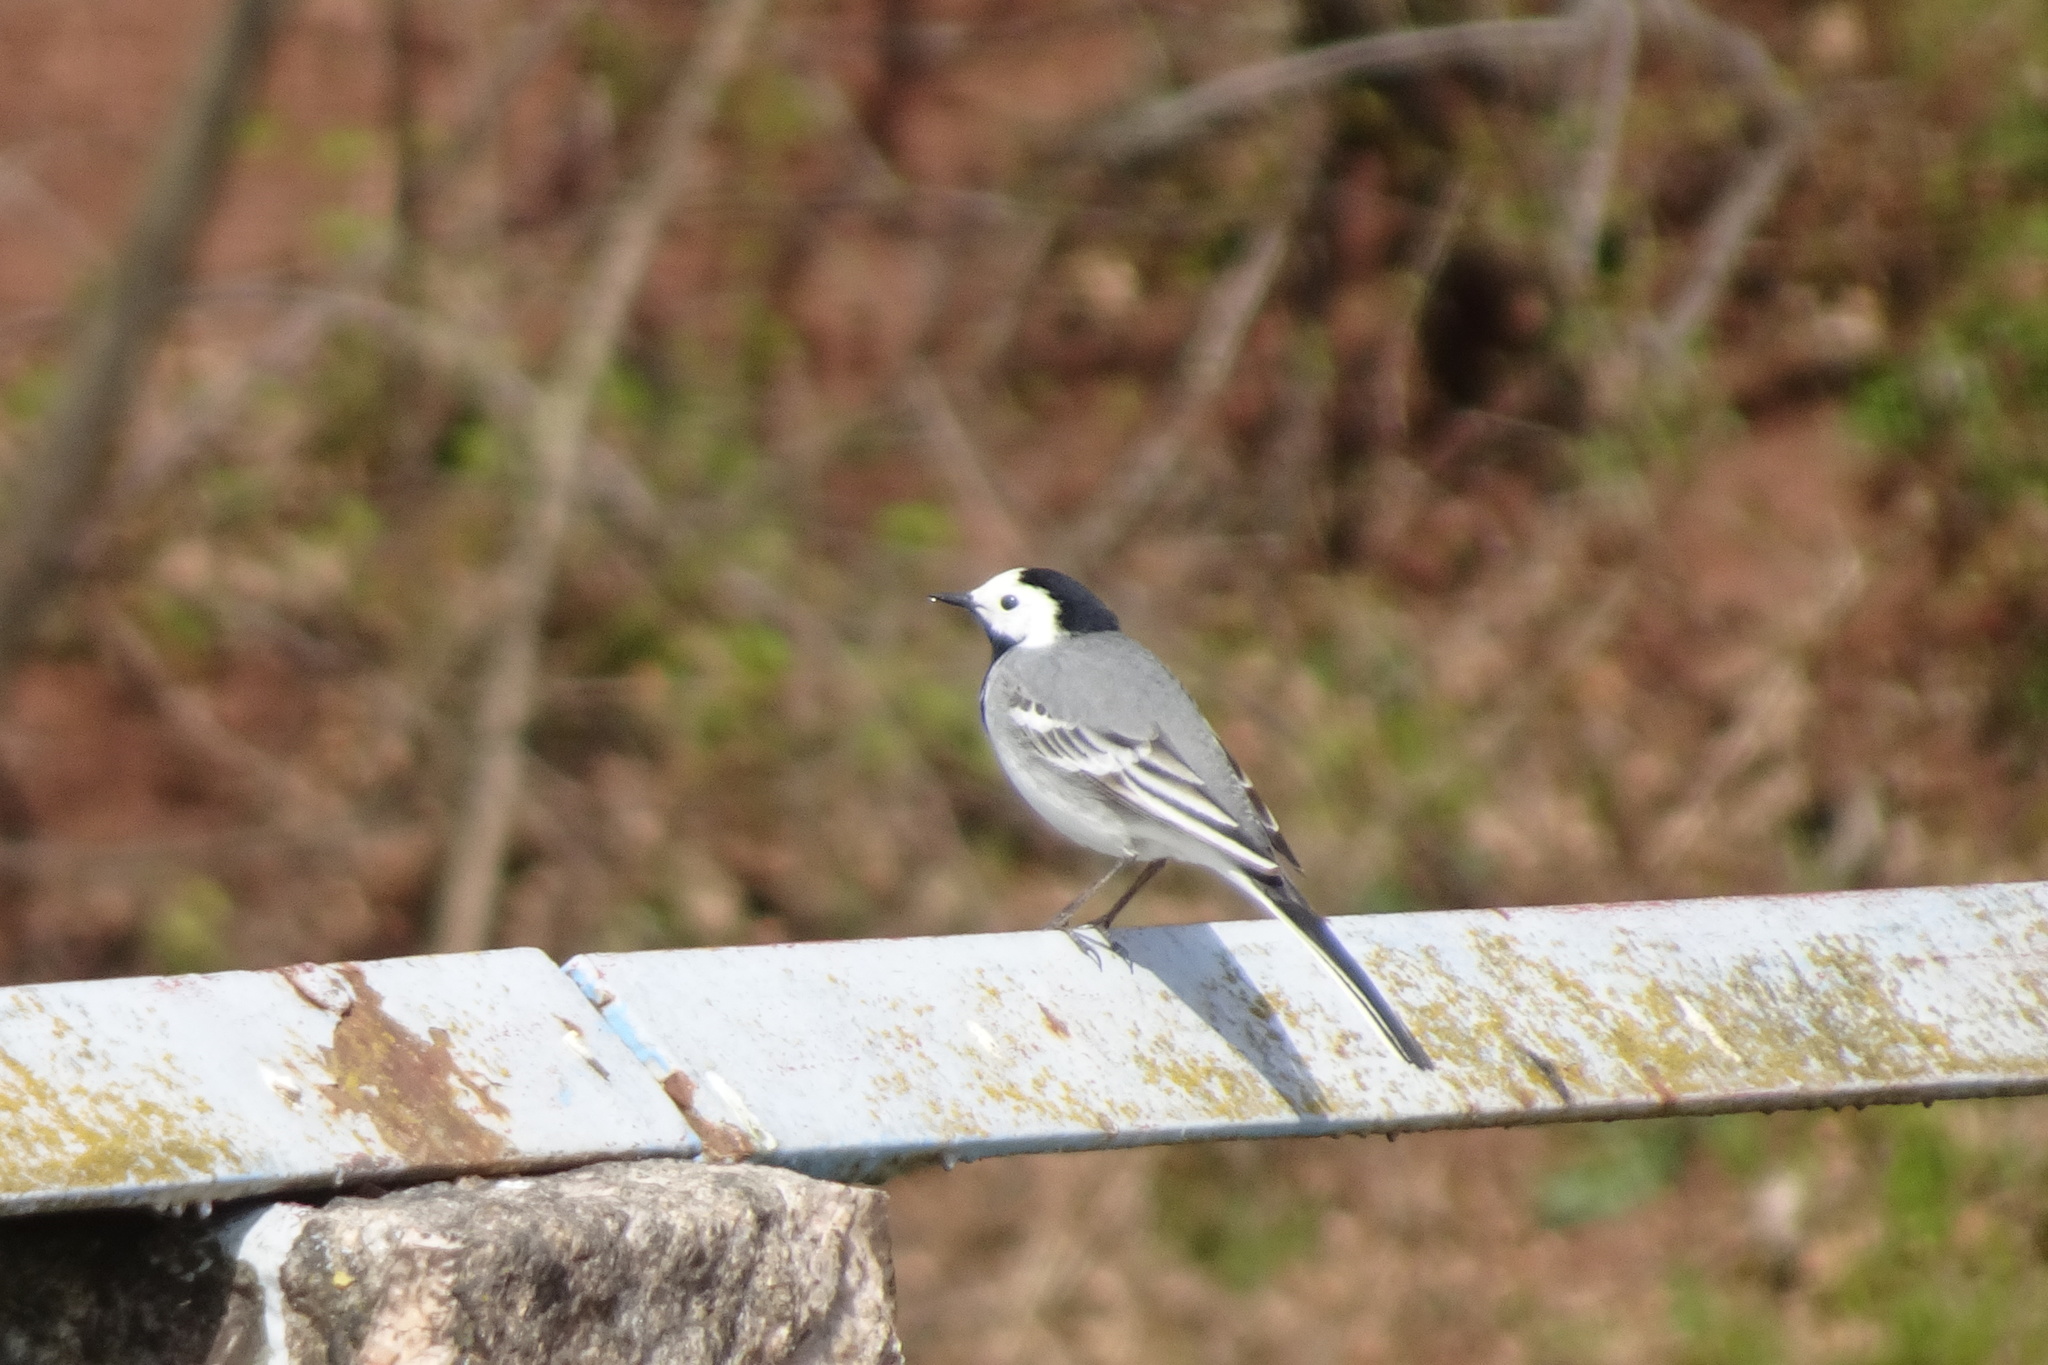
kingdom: Animalia
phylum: Chordata
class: Aves
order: Passeriformes
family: Motacillidae
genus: Motacilla
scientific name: Motacilla alba
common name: White wagtail
